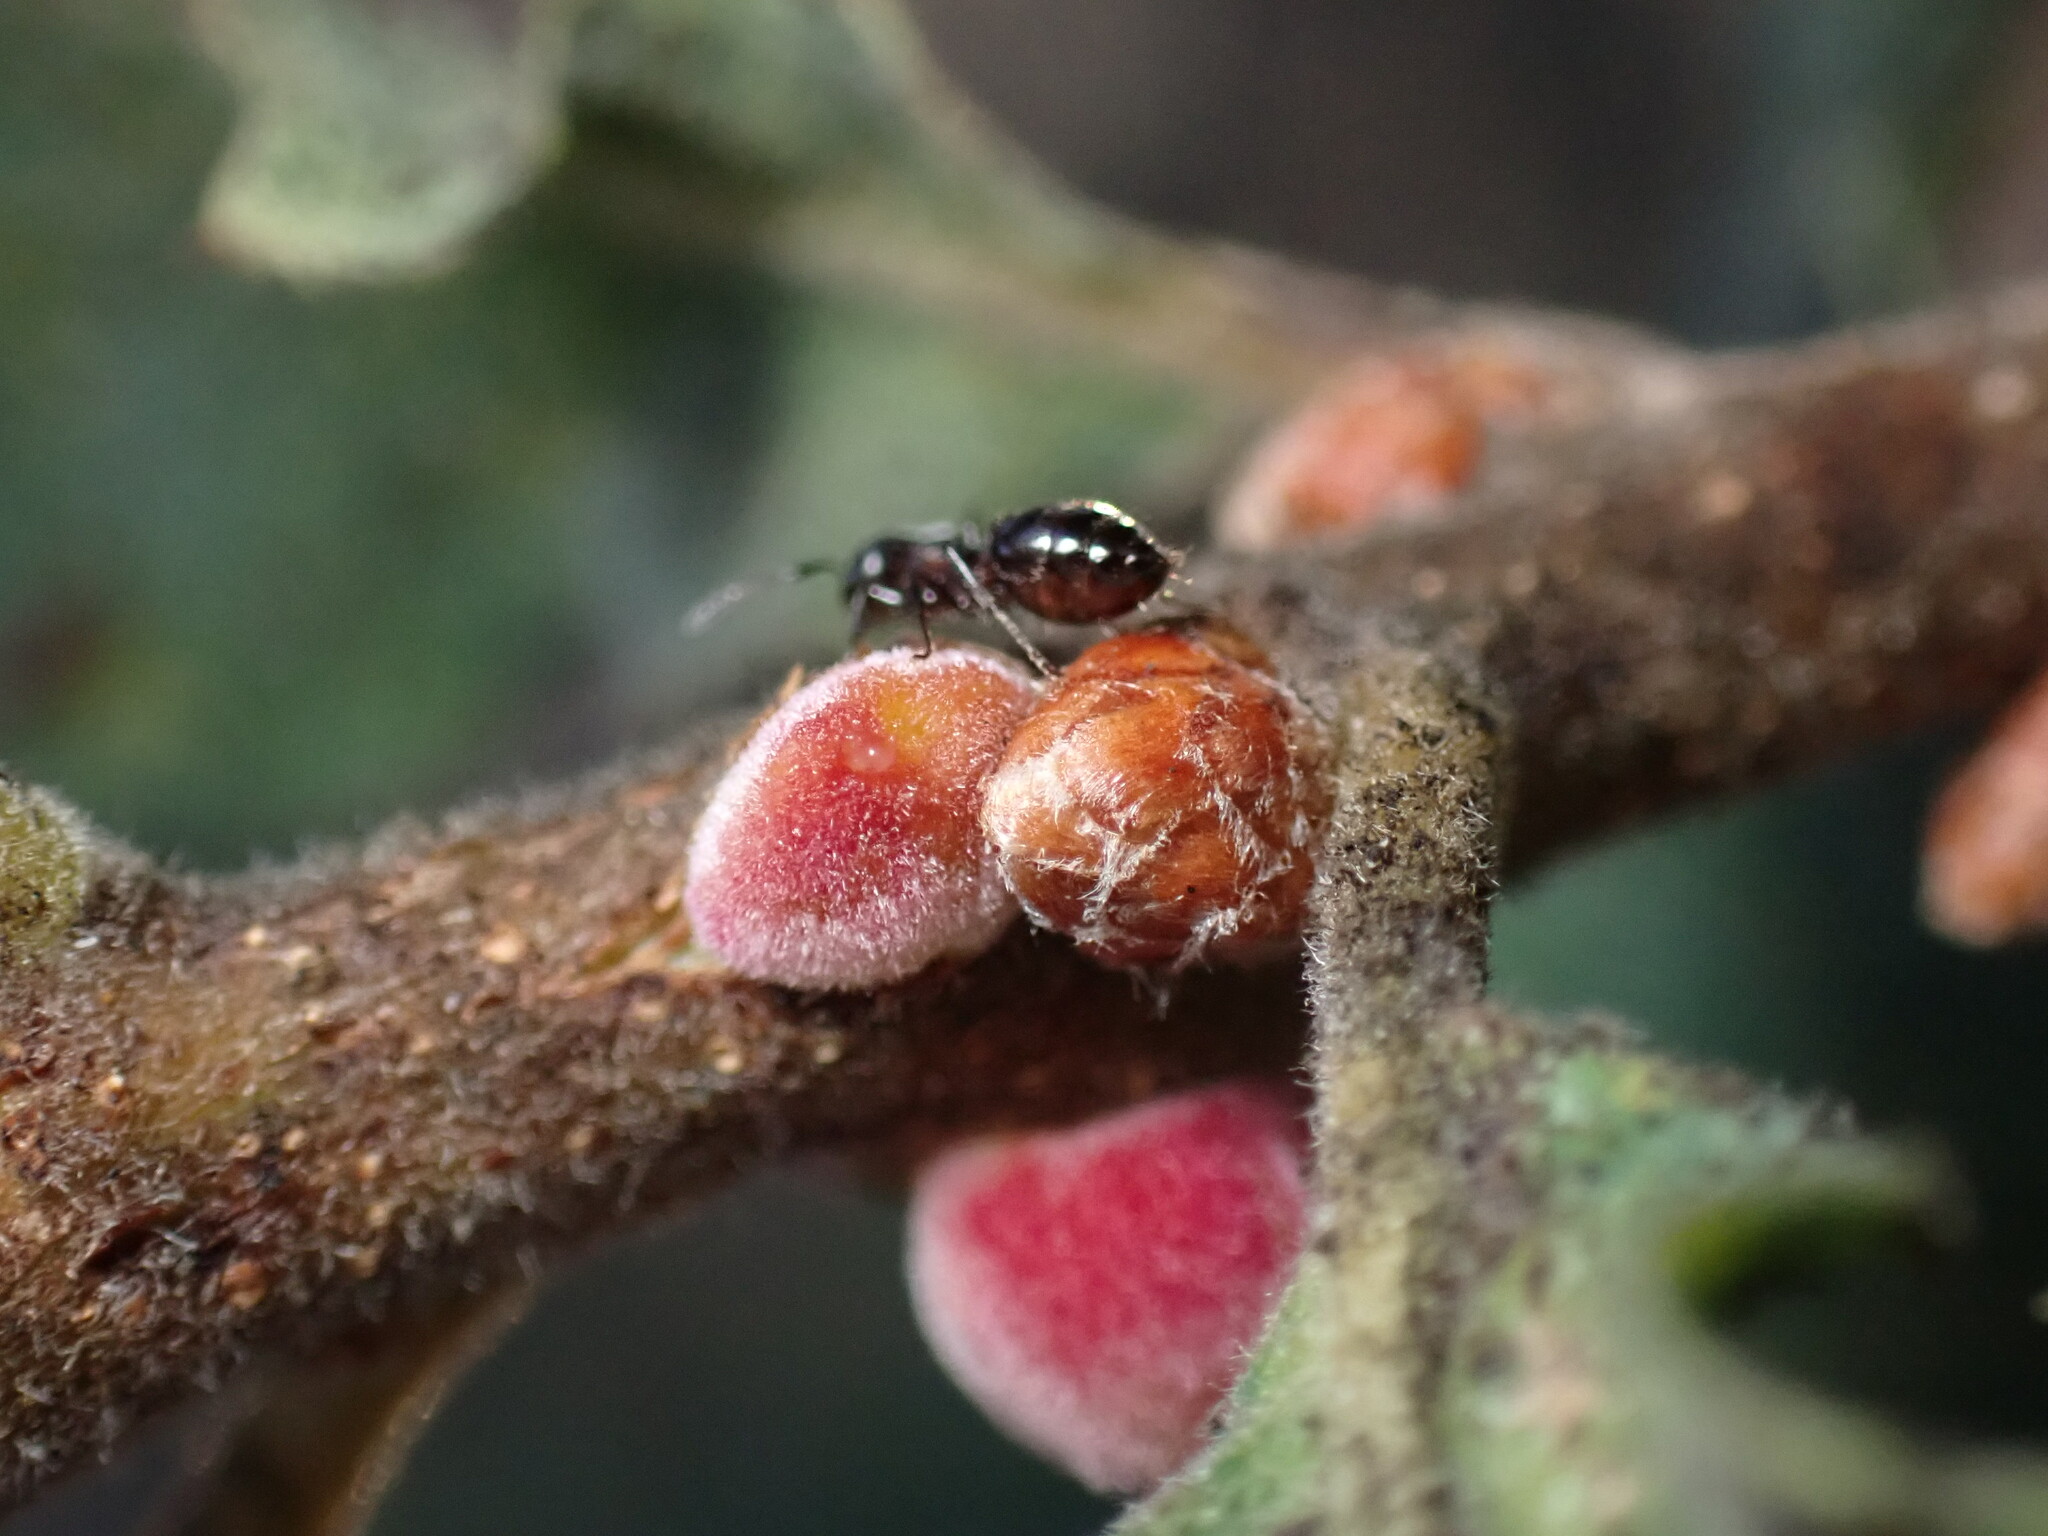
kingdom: Animalia
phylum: Arthropoda
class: Insecta
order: Hymenoptera
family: Cynipidae
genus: Disholcaspis
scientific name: Disholcaspis
